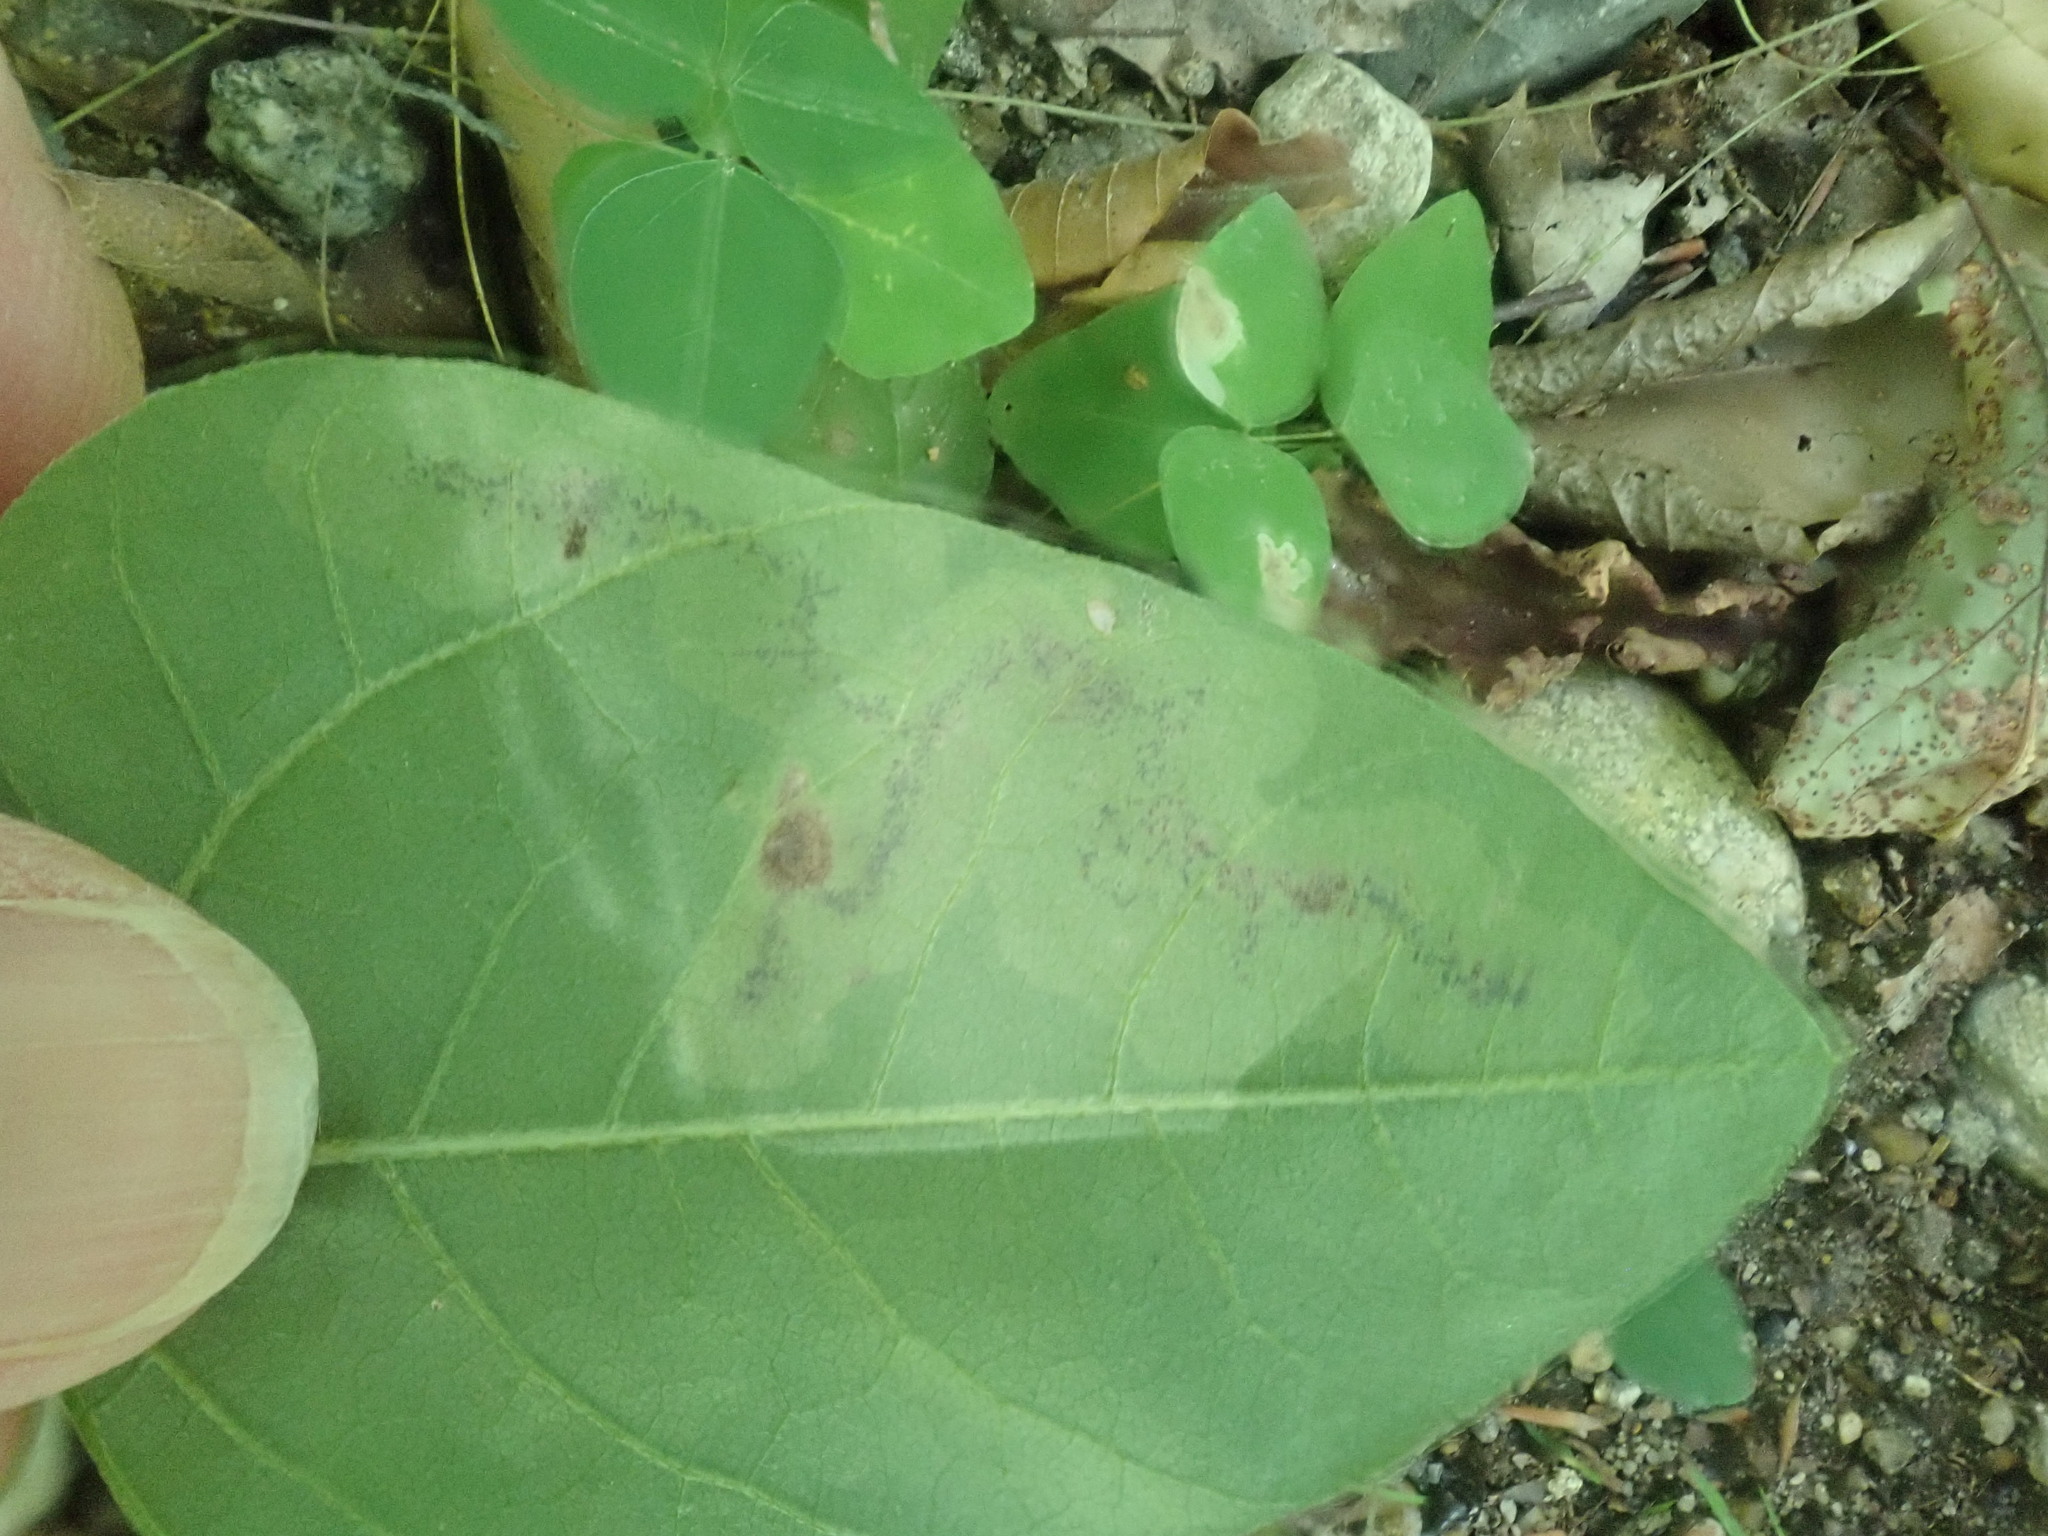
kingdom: Animalia
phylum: Arthropoda
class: Insecta
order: Lepidoptera
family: Gracillariidae
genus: Leucanthiza
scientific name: Leucanthiza amphicarpeaefoliella
